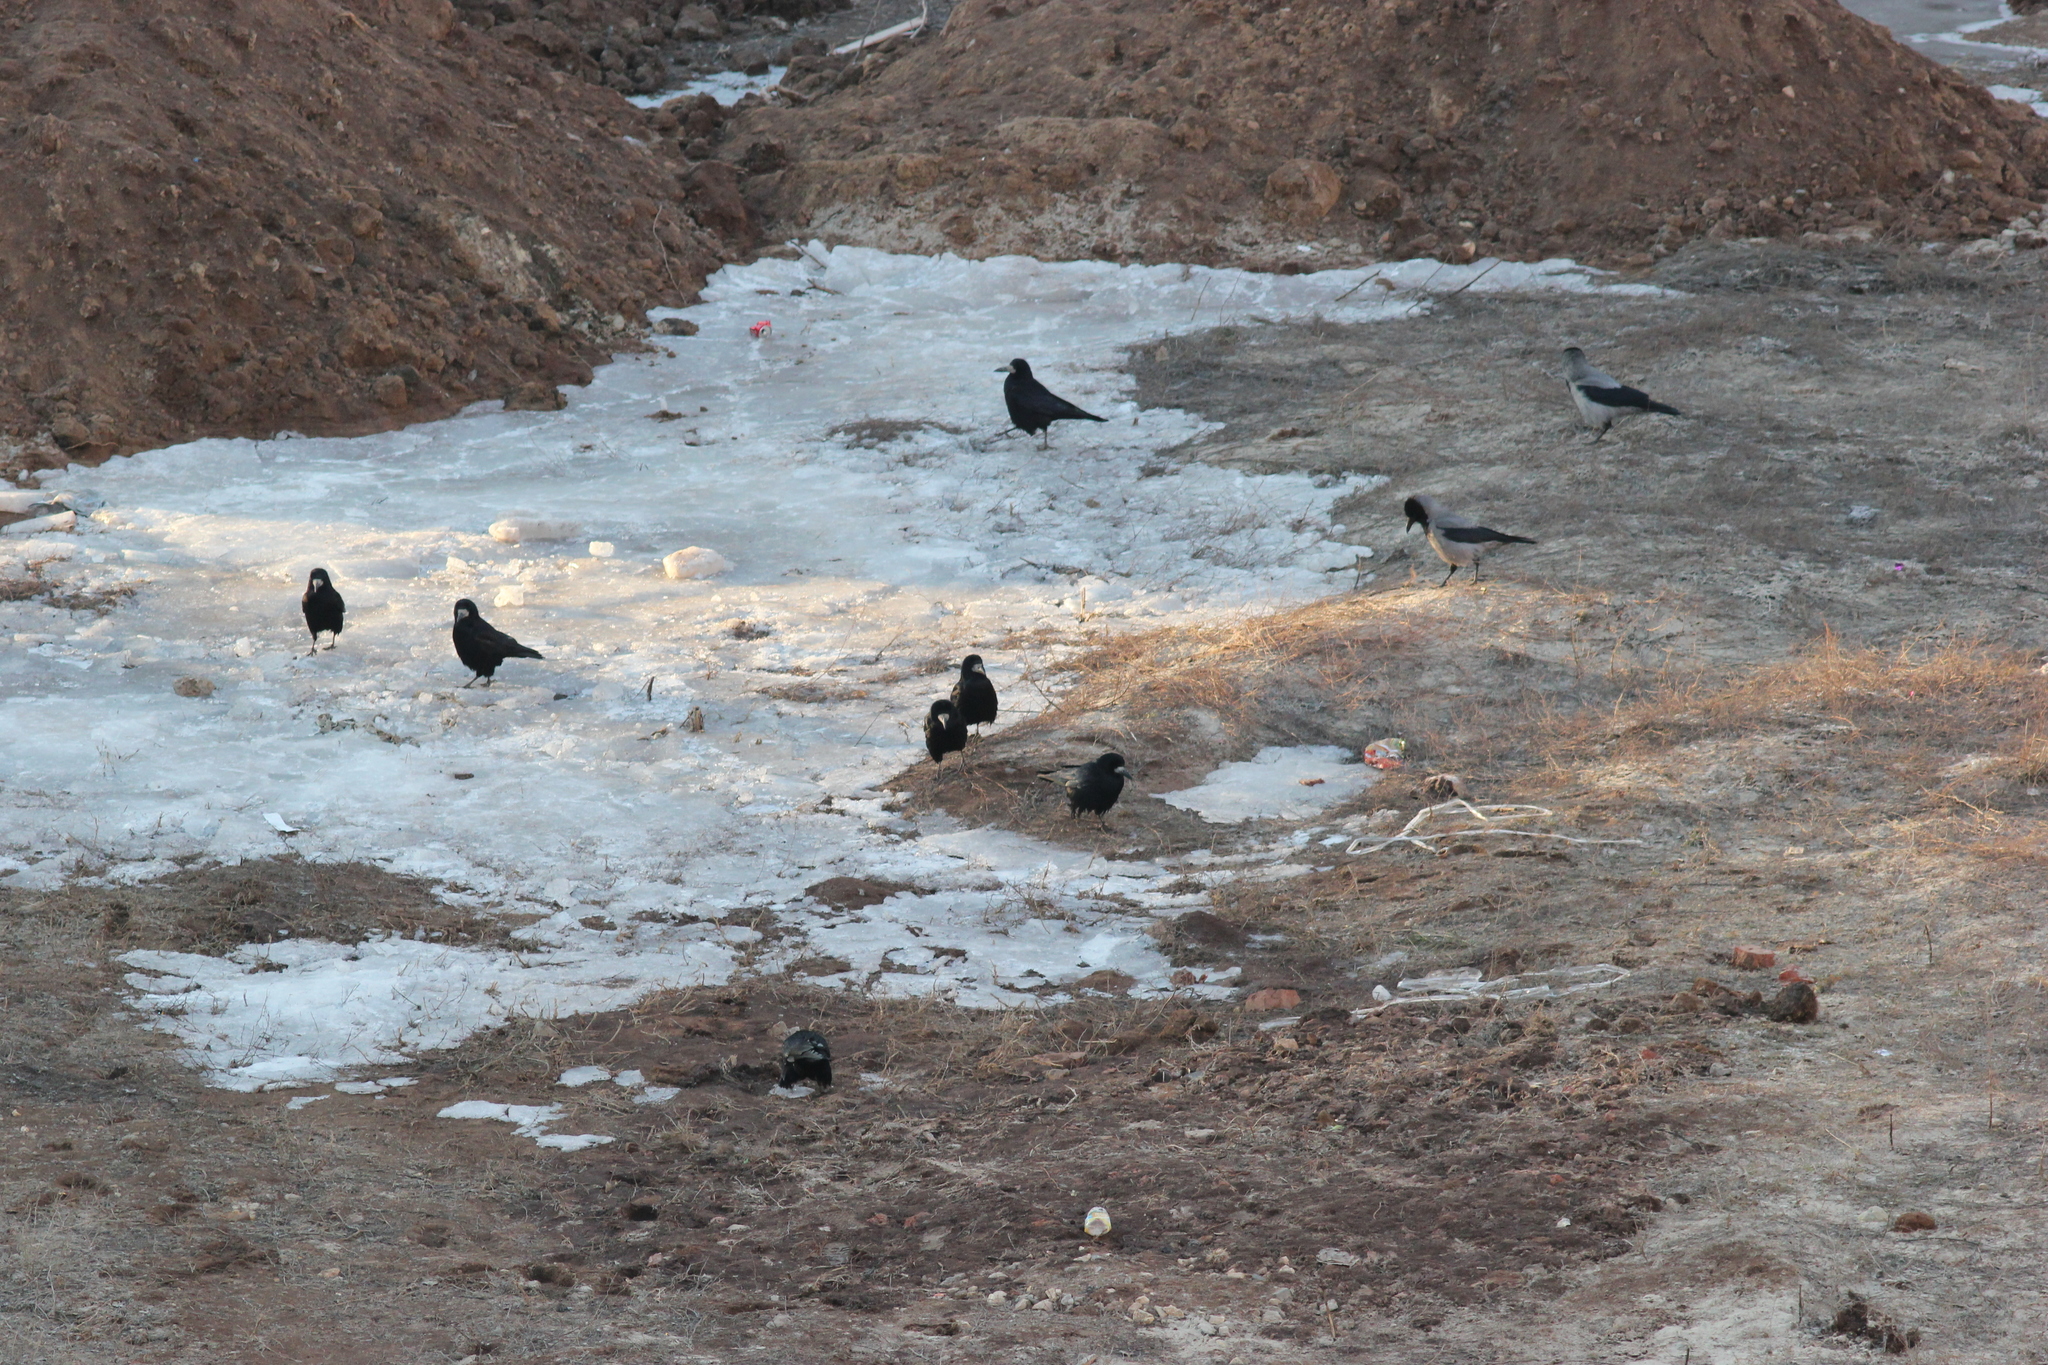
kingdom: Animalia
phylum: Chordata
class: Aves
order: Passeriformes
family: Corvidae
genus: Corvus
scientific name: Corvus cornix
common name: Hooded crow
